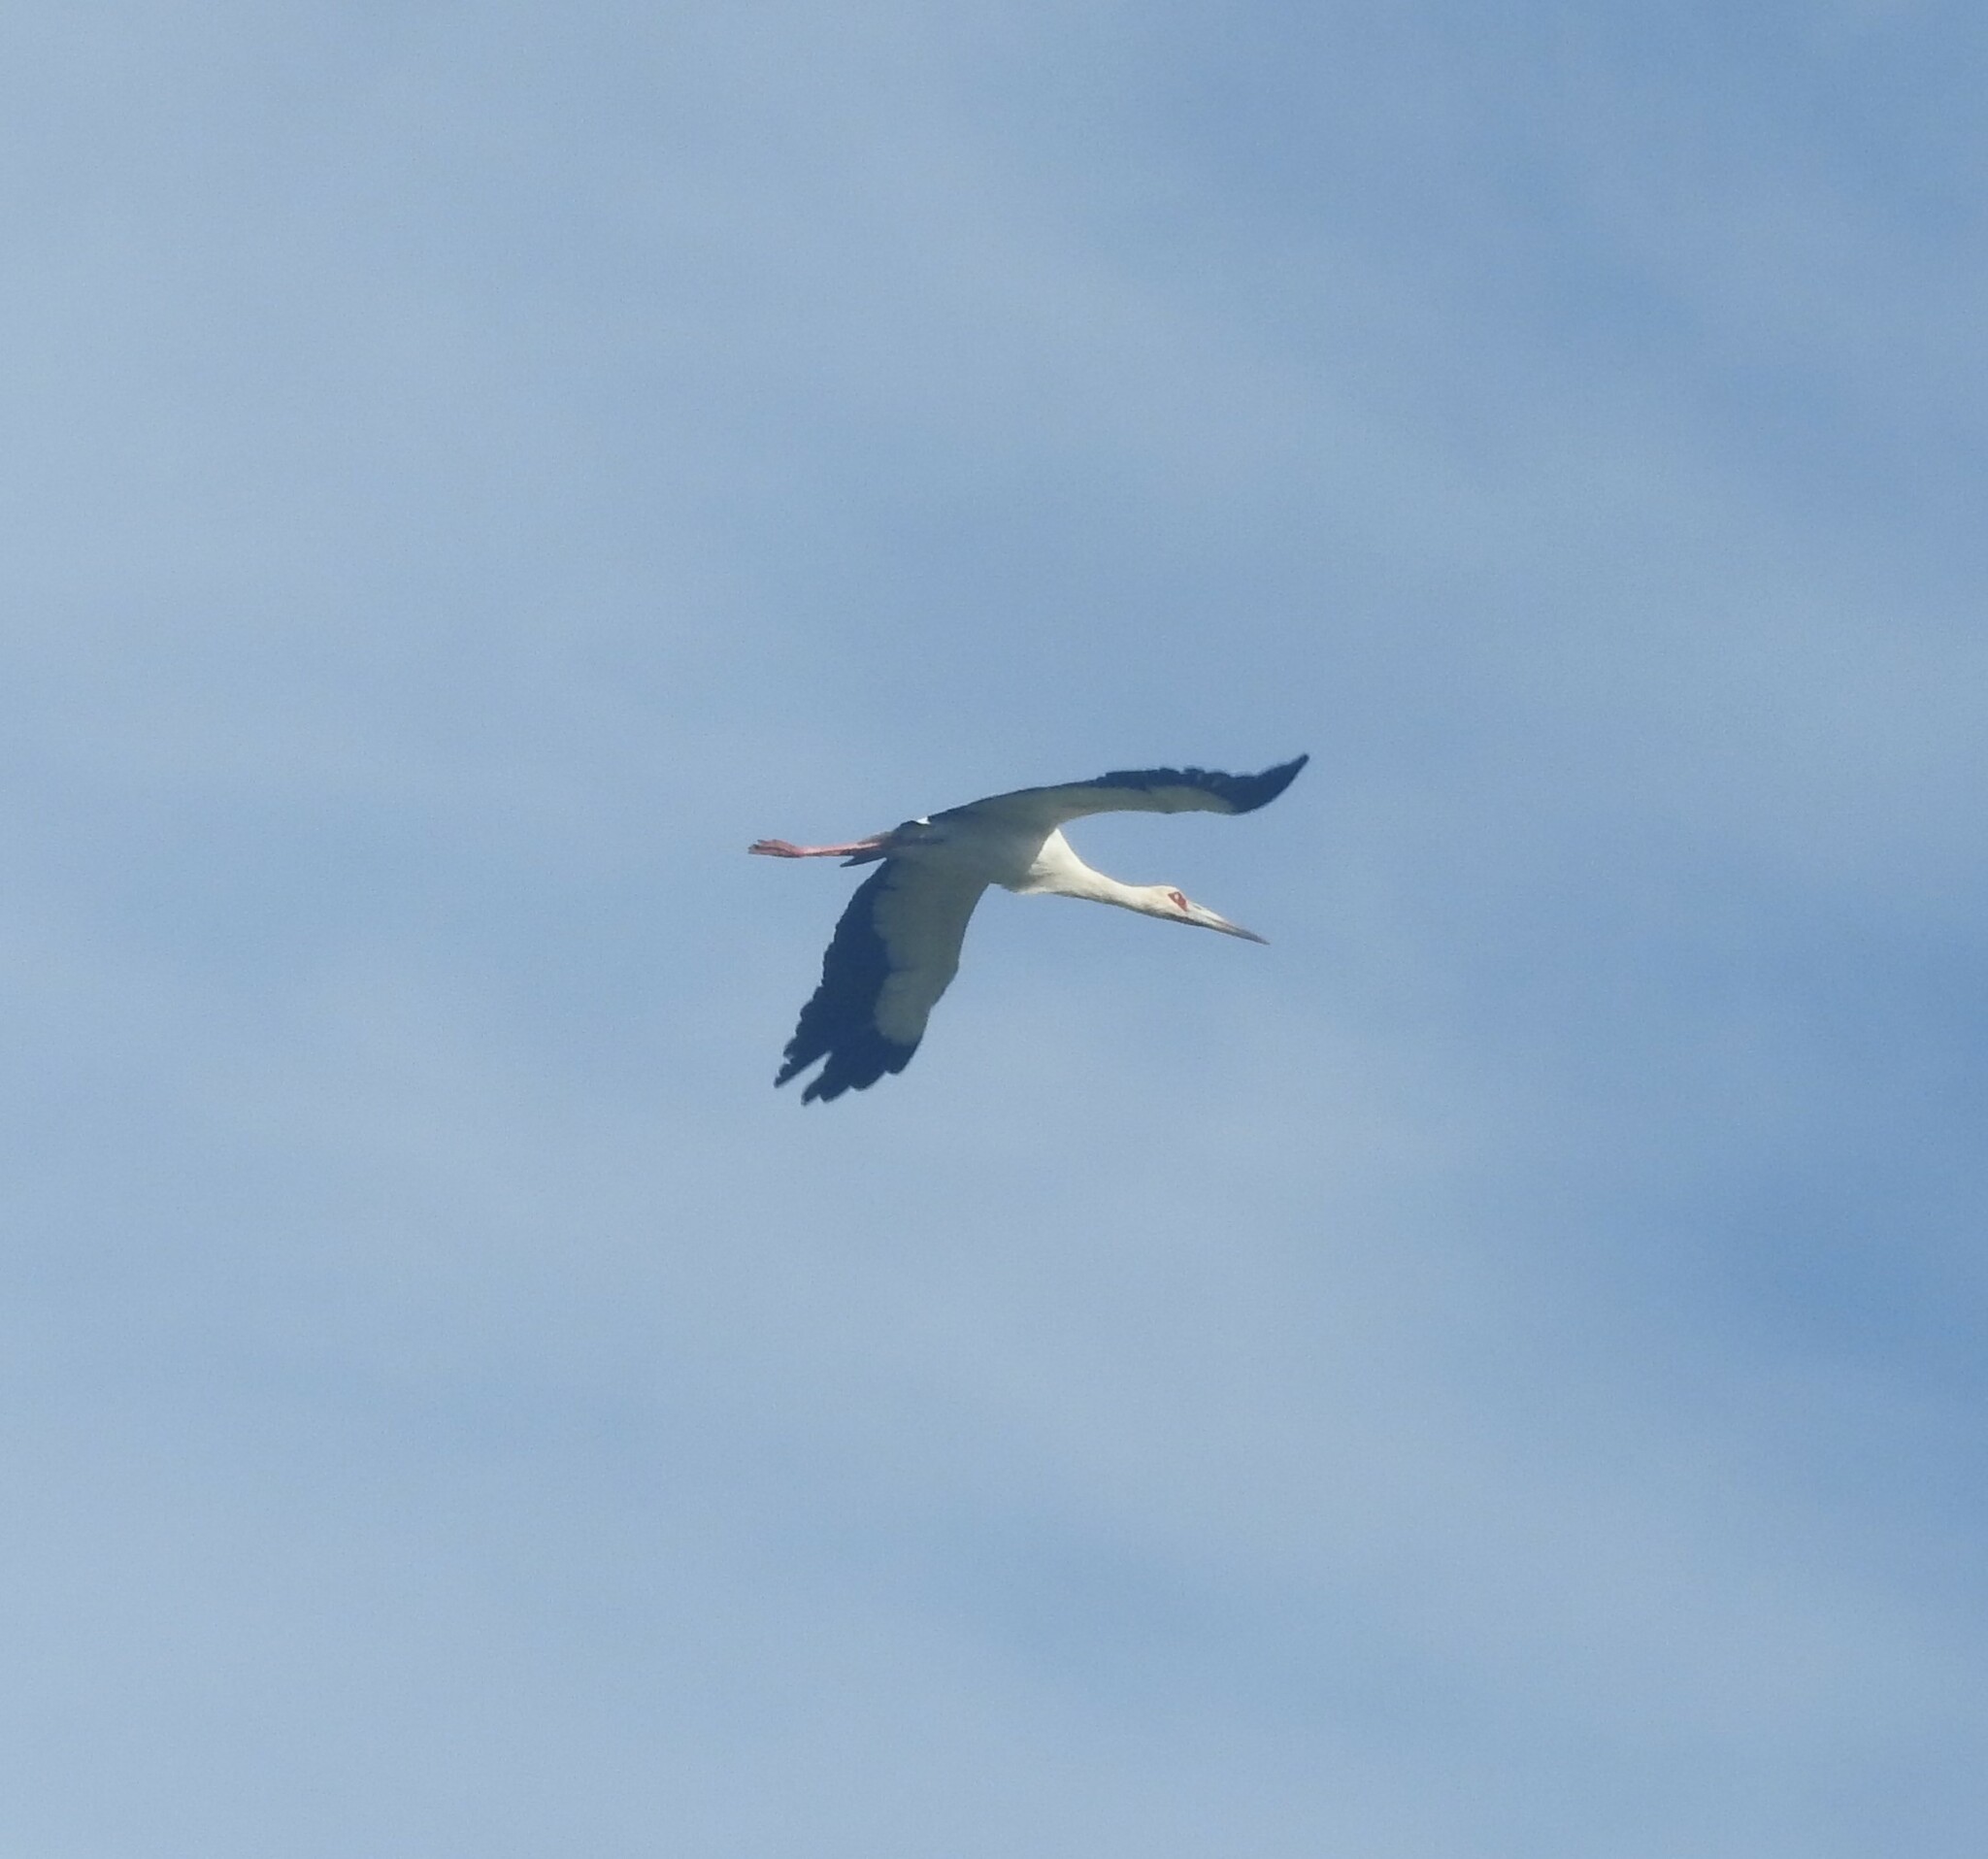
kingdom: Animalia
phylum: Chordata
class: Aves
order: Ciconiiformes
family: Ciconiidae
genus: Ciconia
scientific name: Ciconia maguari
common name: Maguari stork
